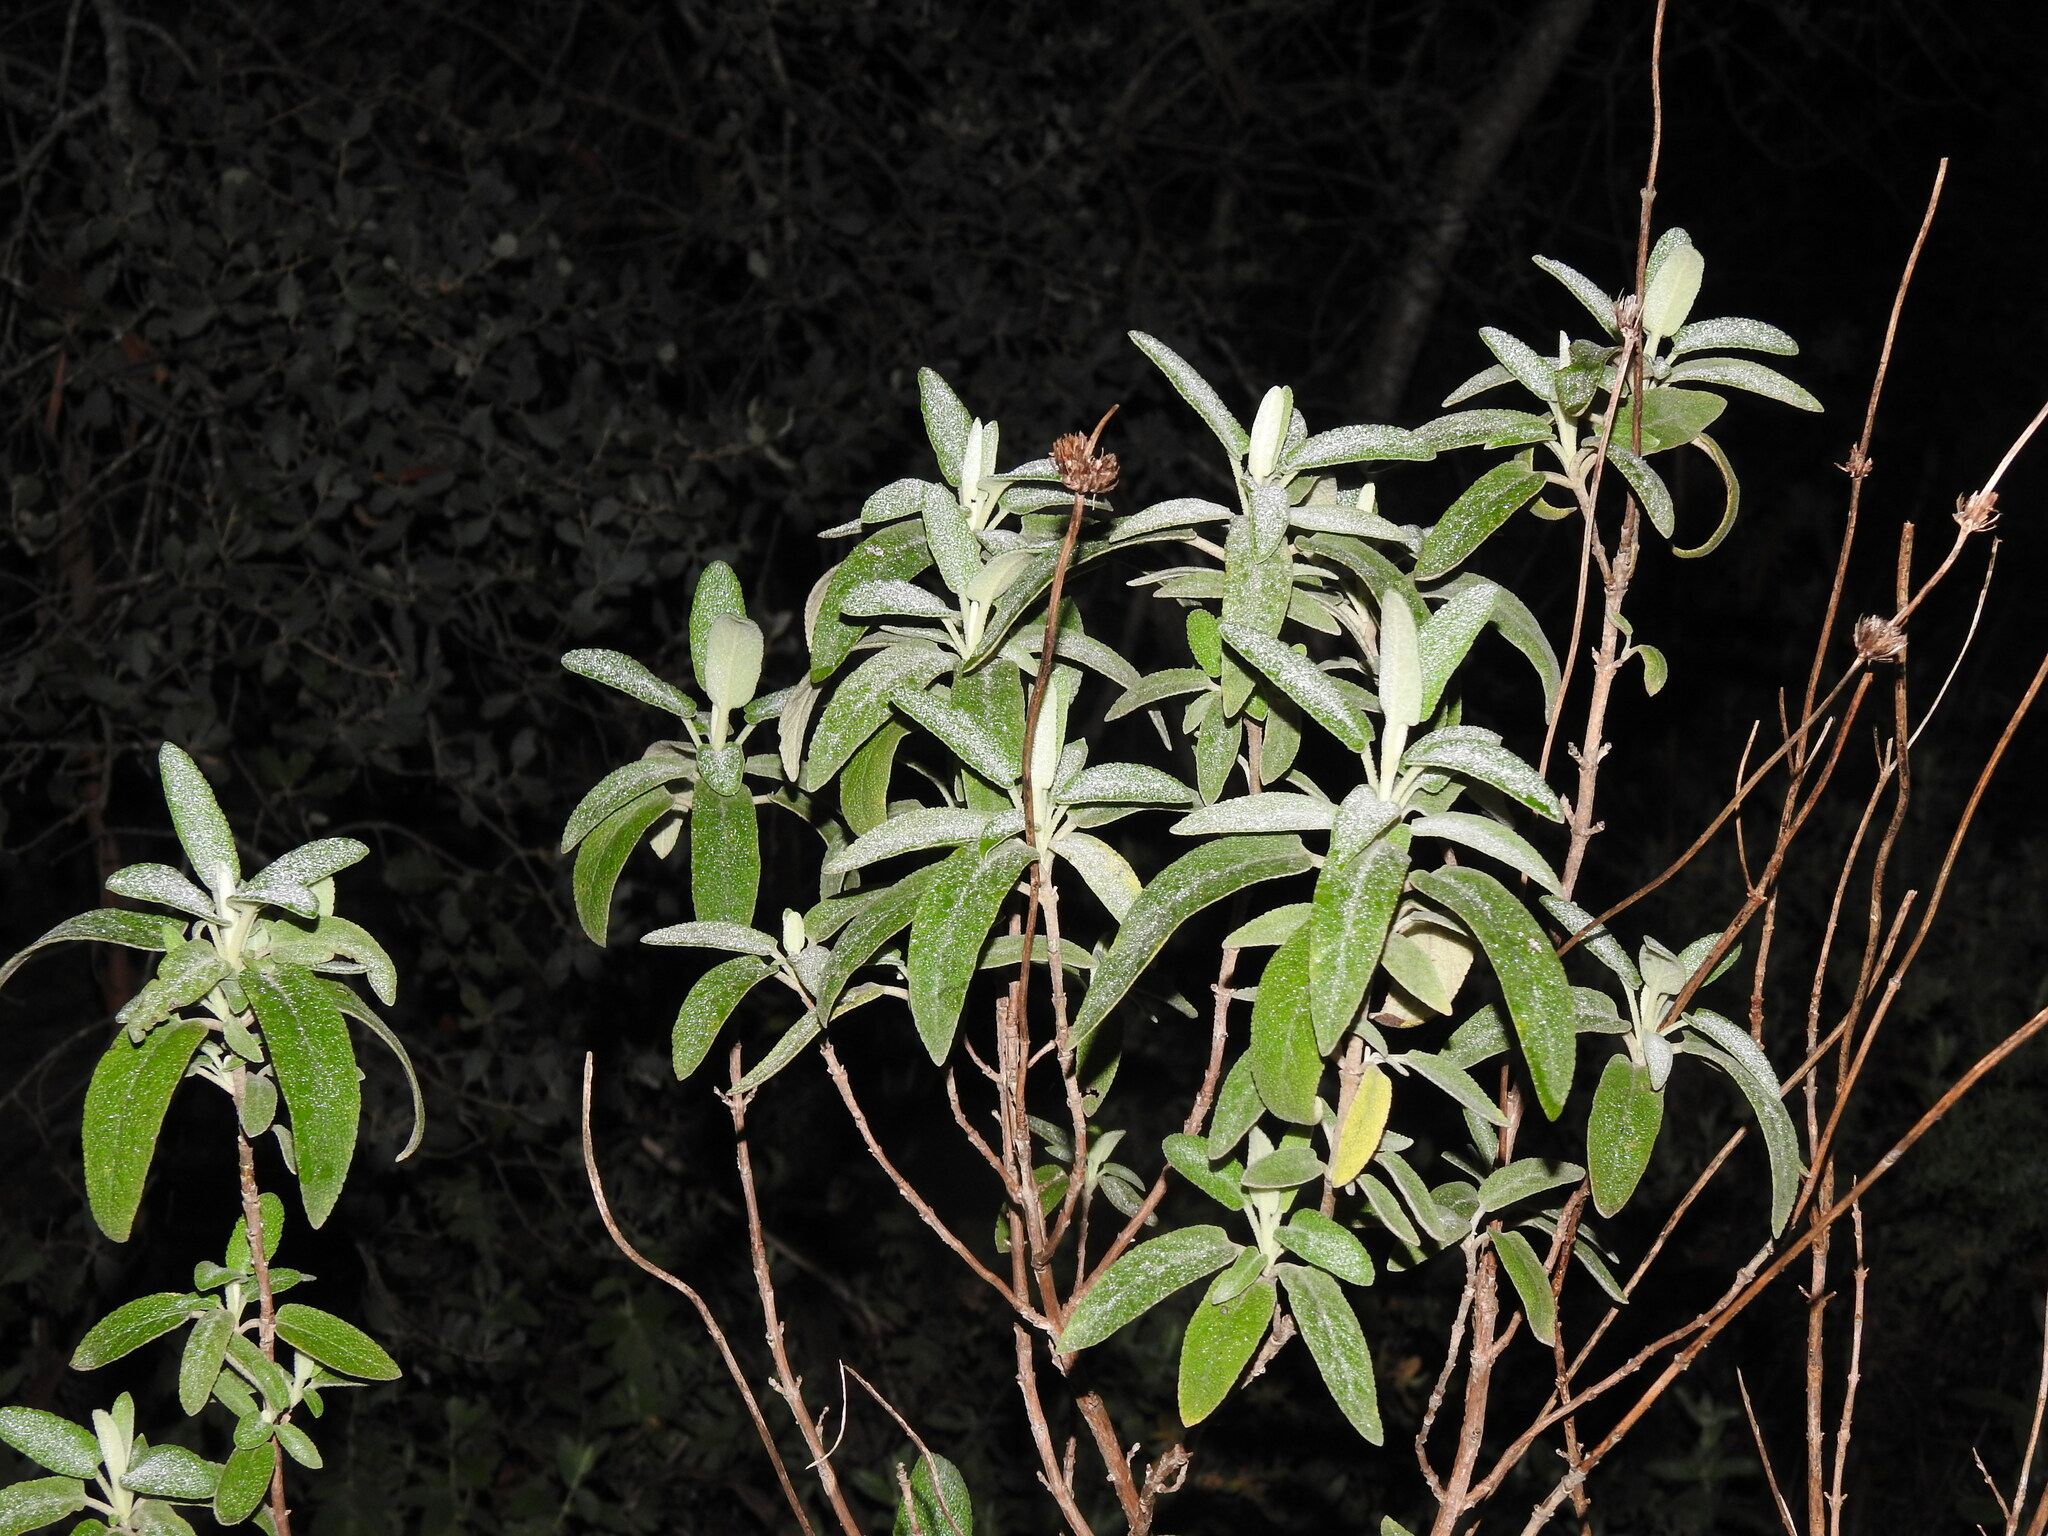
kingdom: Plantae
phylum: Tracheophyta
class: Magnoliopsida
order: Lamiales
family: Lamiaceae
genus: Phlomis
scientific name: Phlomis purpurea
